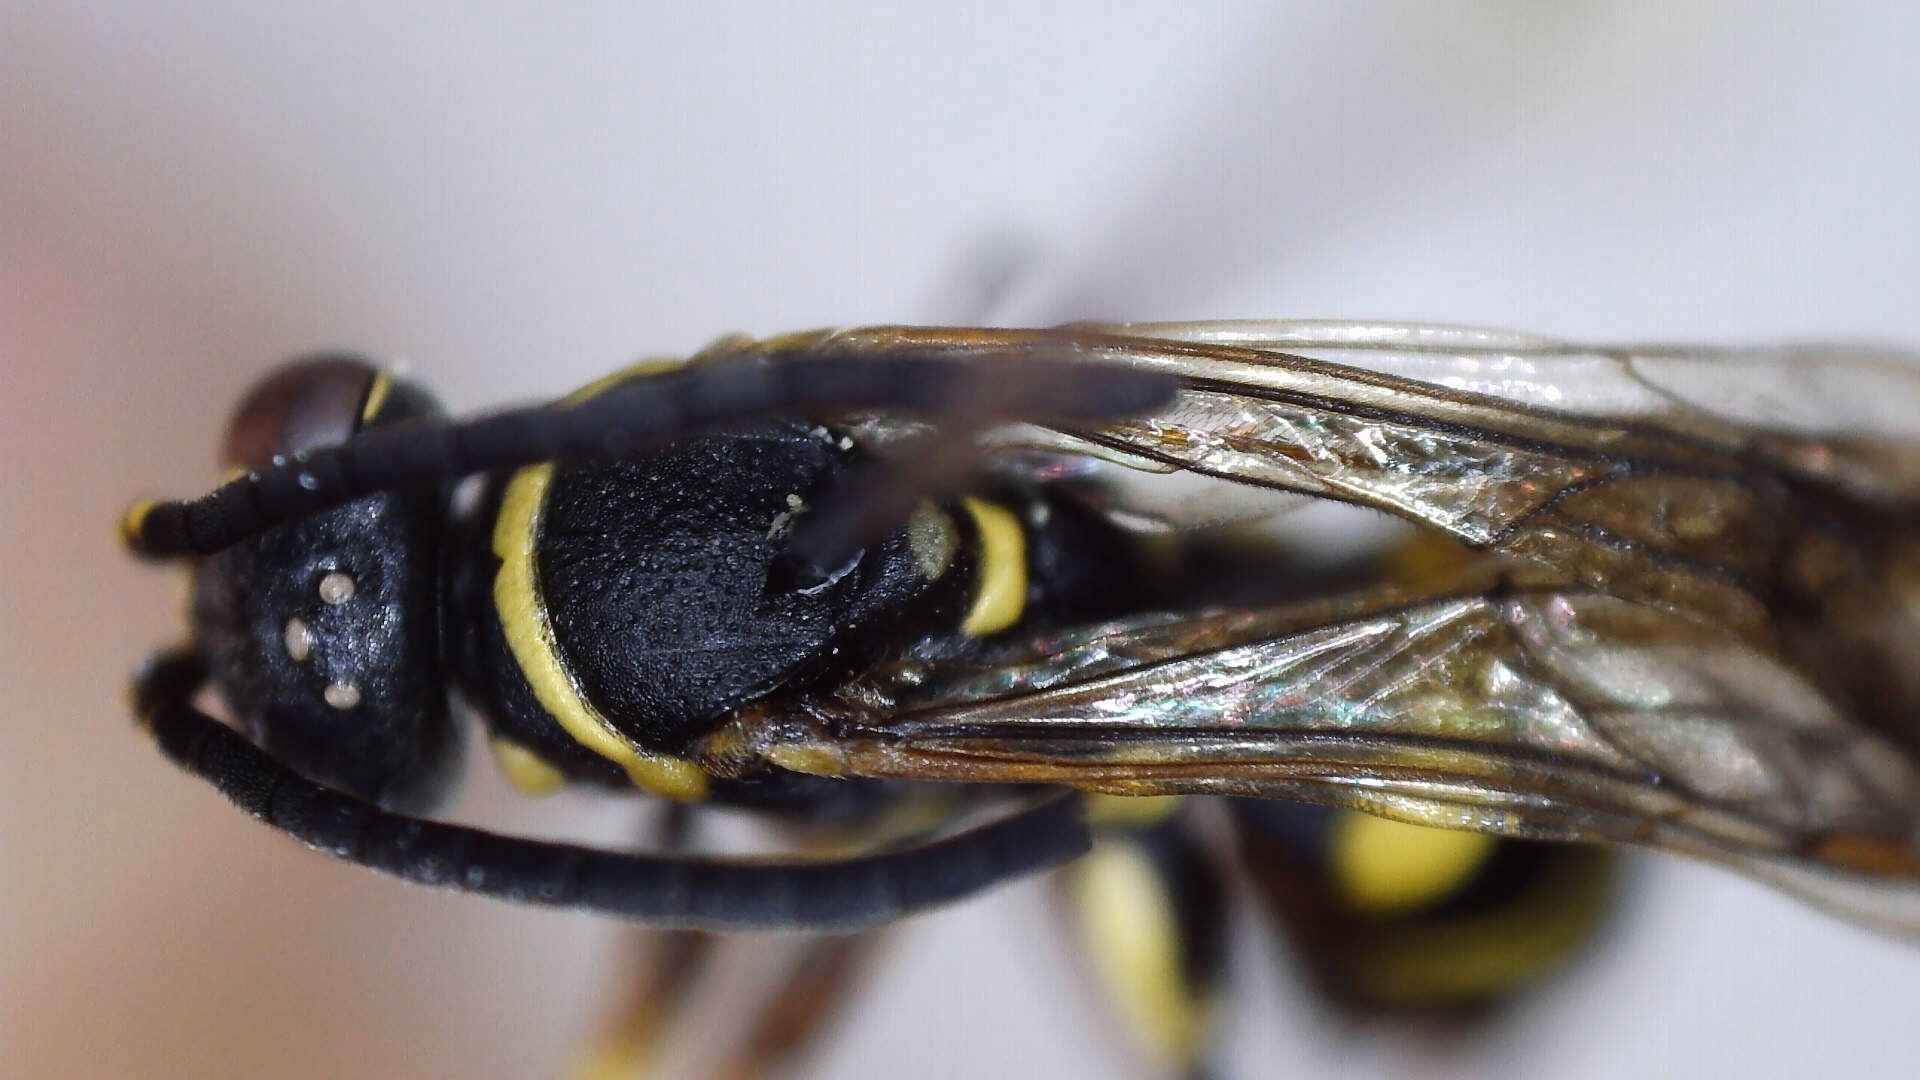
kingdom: Animalia
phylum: Arthropoda
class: Insecta
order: Hymenoptera
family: Pompilidae
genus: Ceropales
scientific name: Ceropales maculata
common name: Spider wasp
